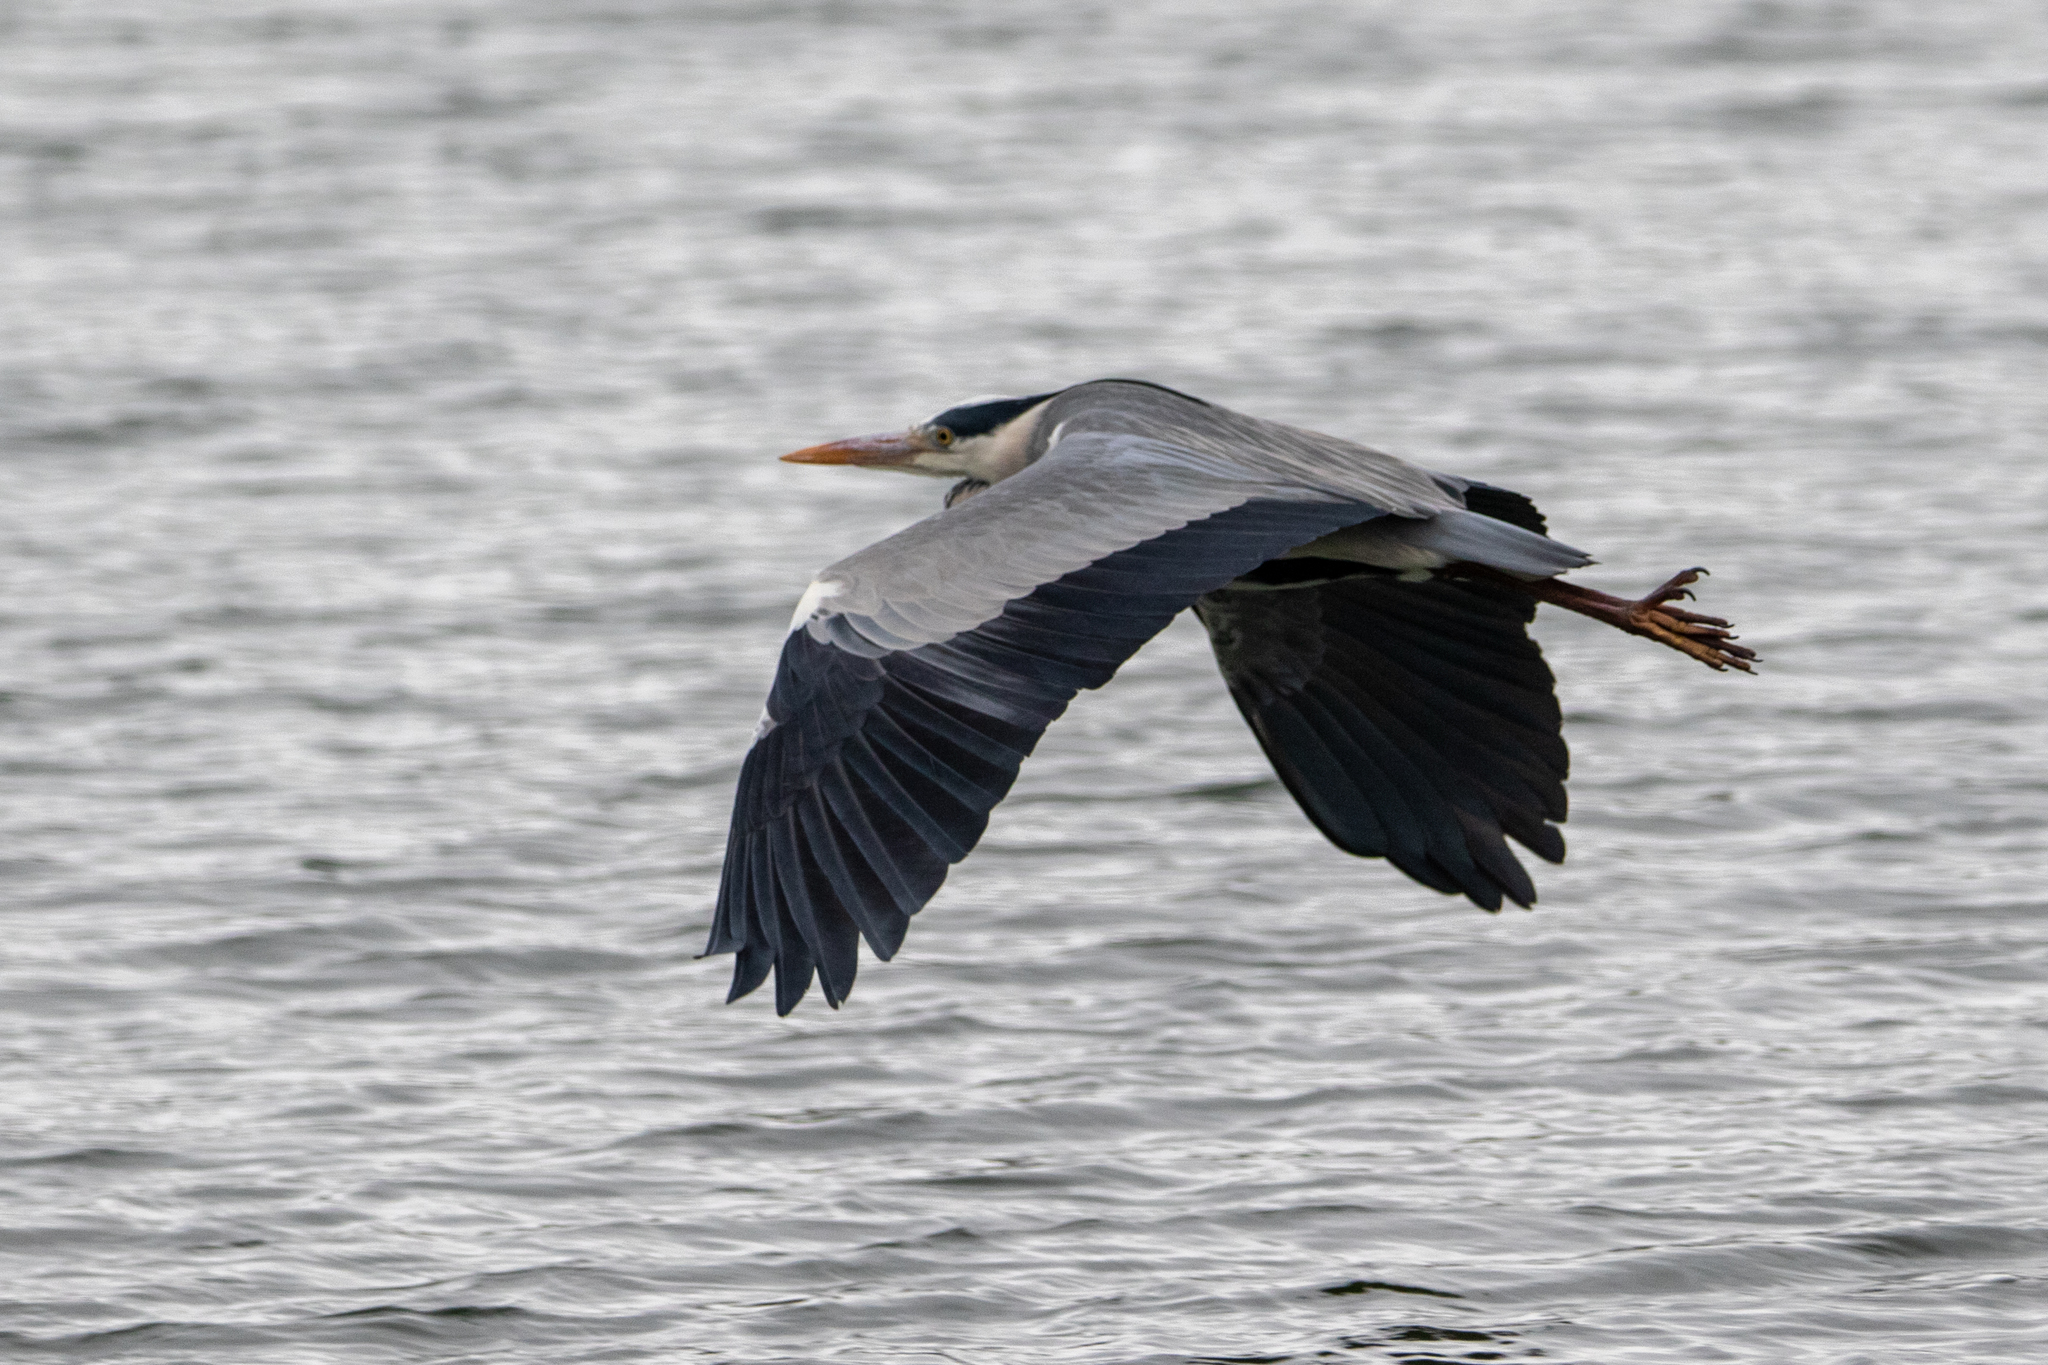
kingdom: Animalia
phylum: Chordata
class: Aves
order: Pelecaniformes
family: Ardeidae
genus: Ardea
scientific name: Ardea cinerea
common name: Grey heron
